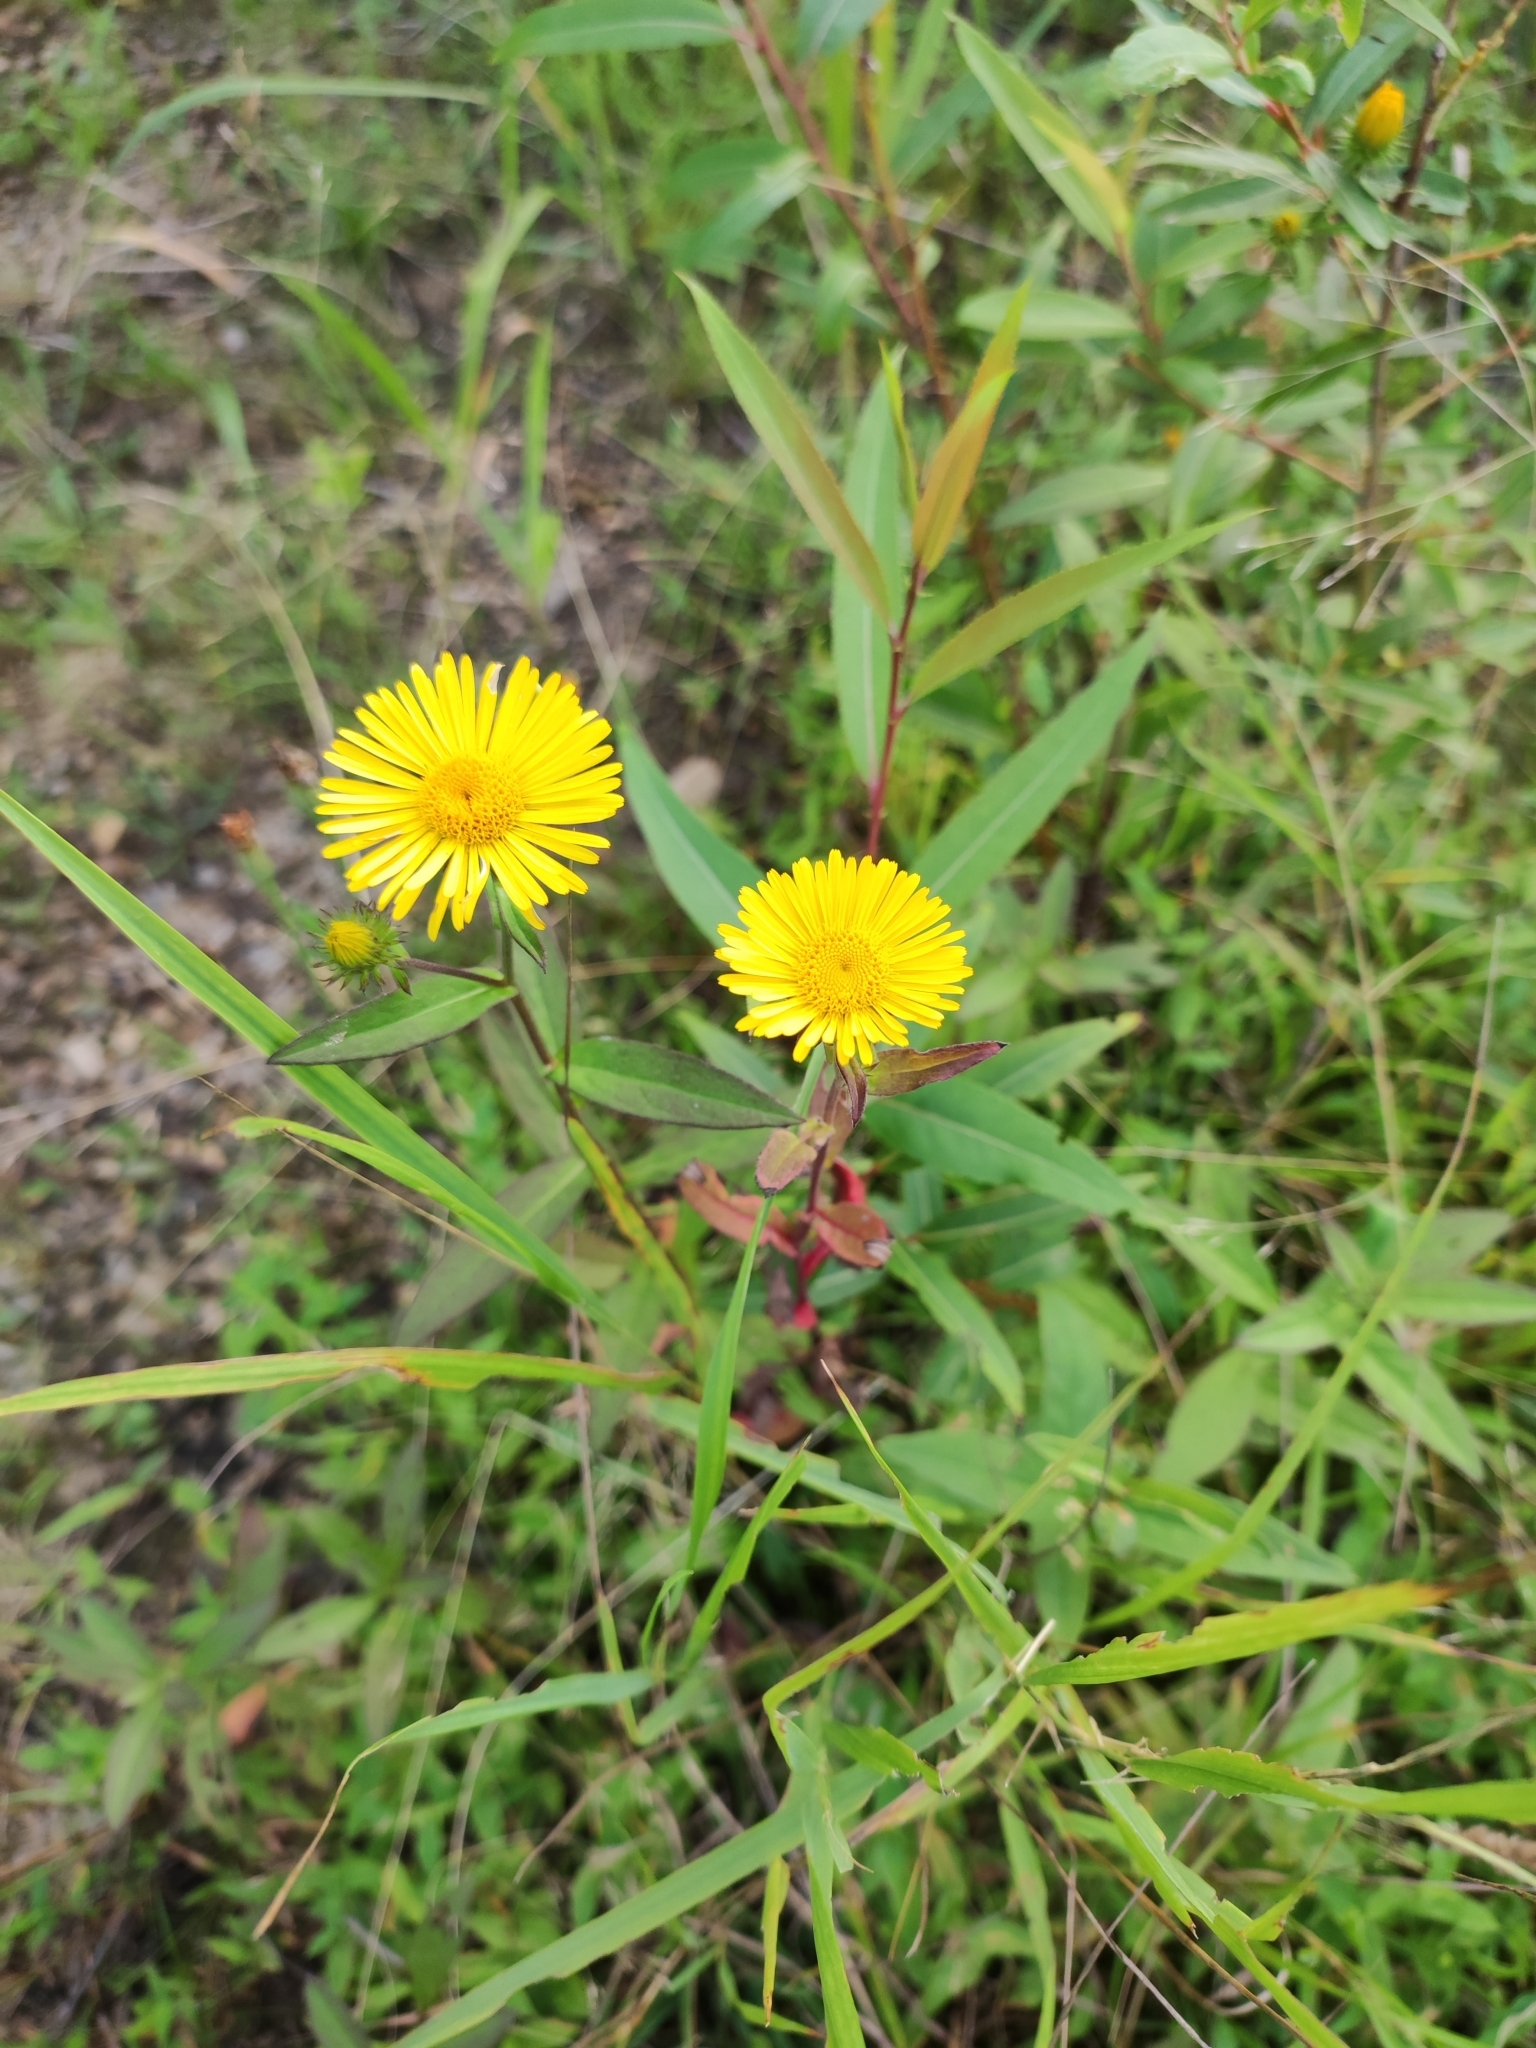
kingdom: Plantae
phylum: Tracheophyta
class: Magnoliopsida
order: Asterales
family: Asteraceae
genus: Inula
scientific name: Inula japonica
